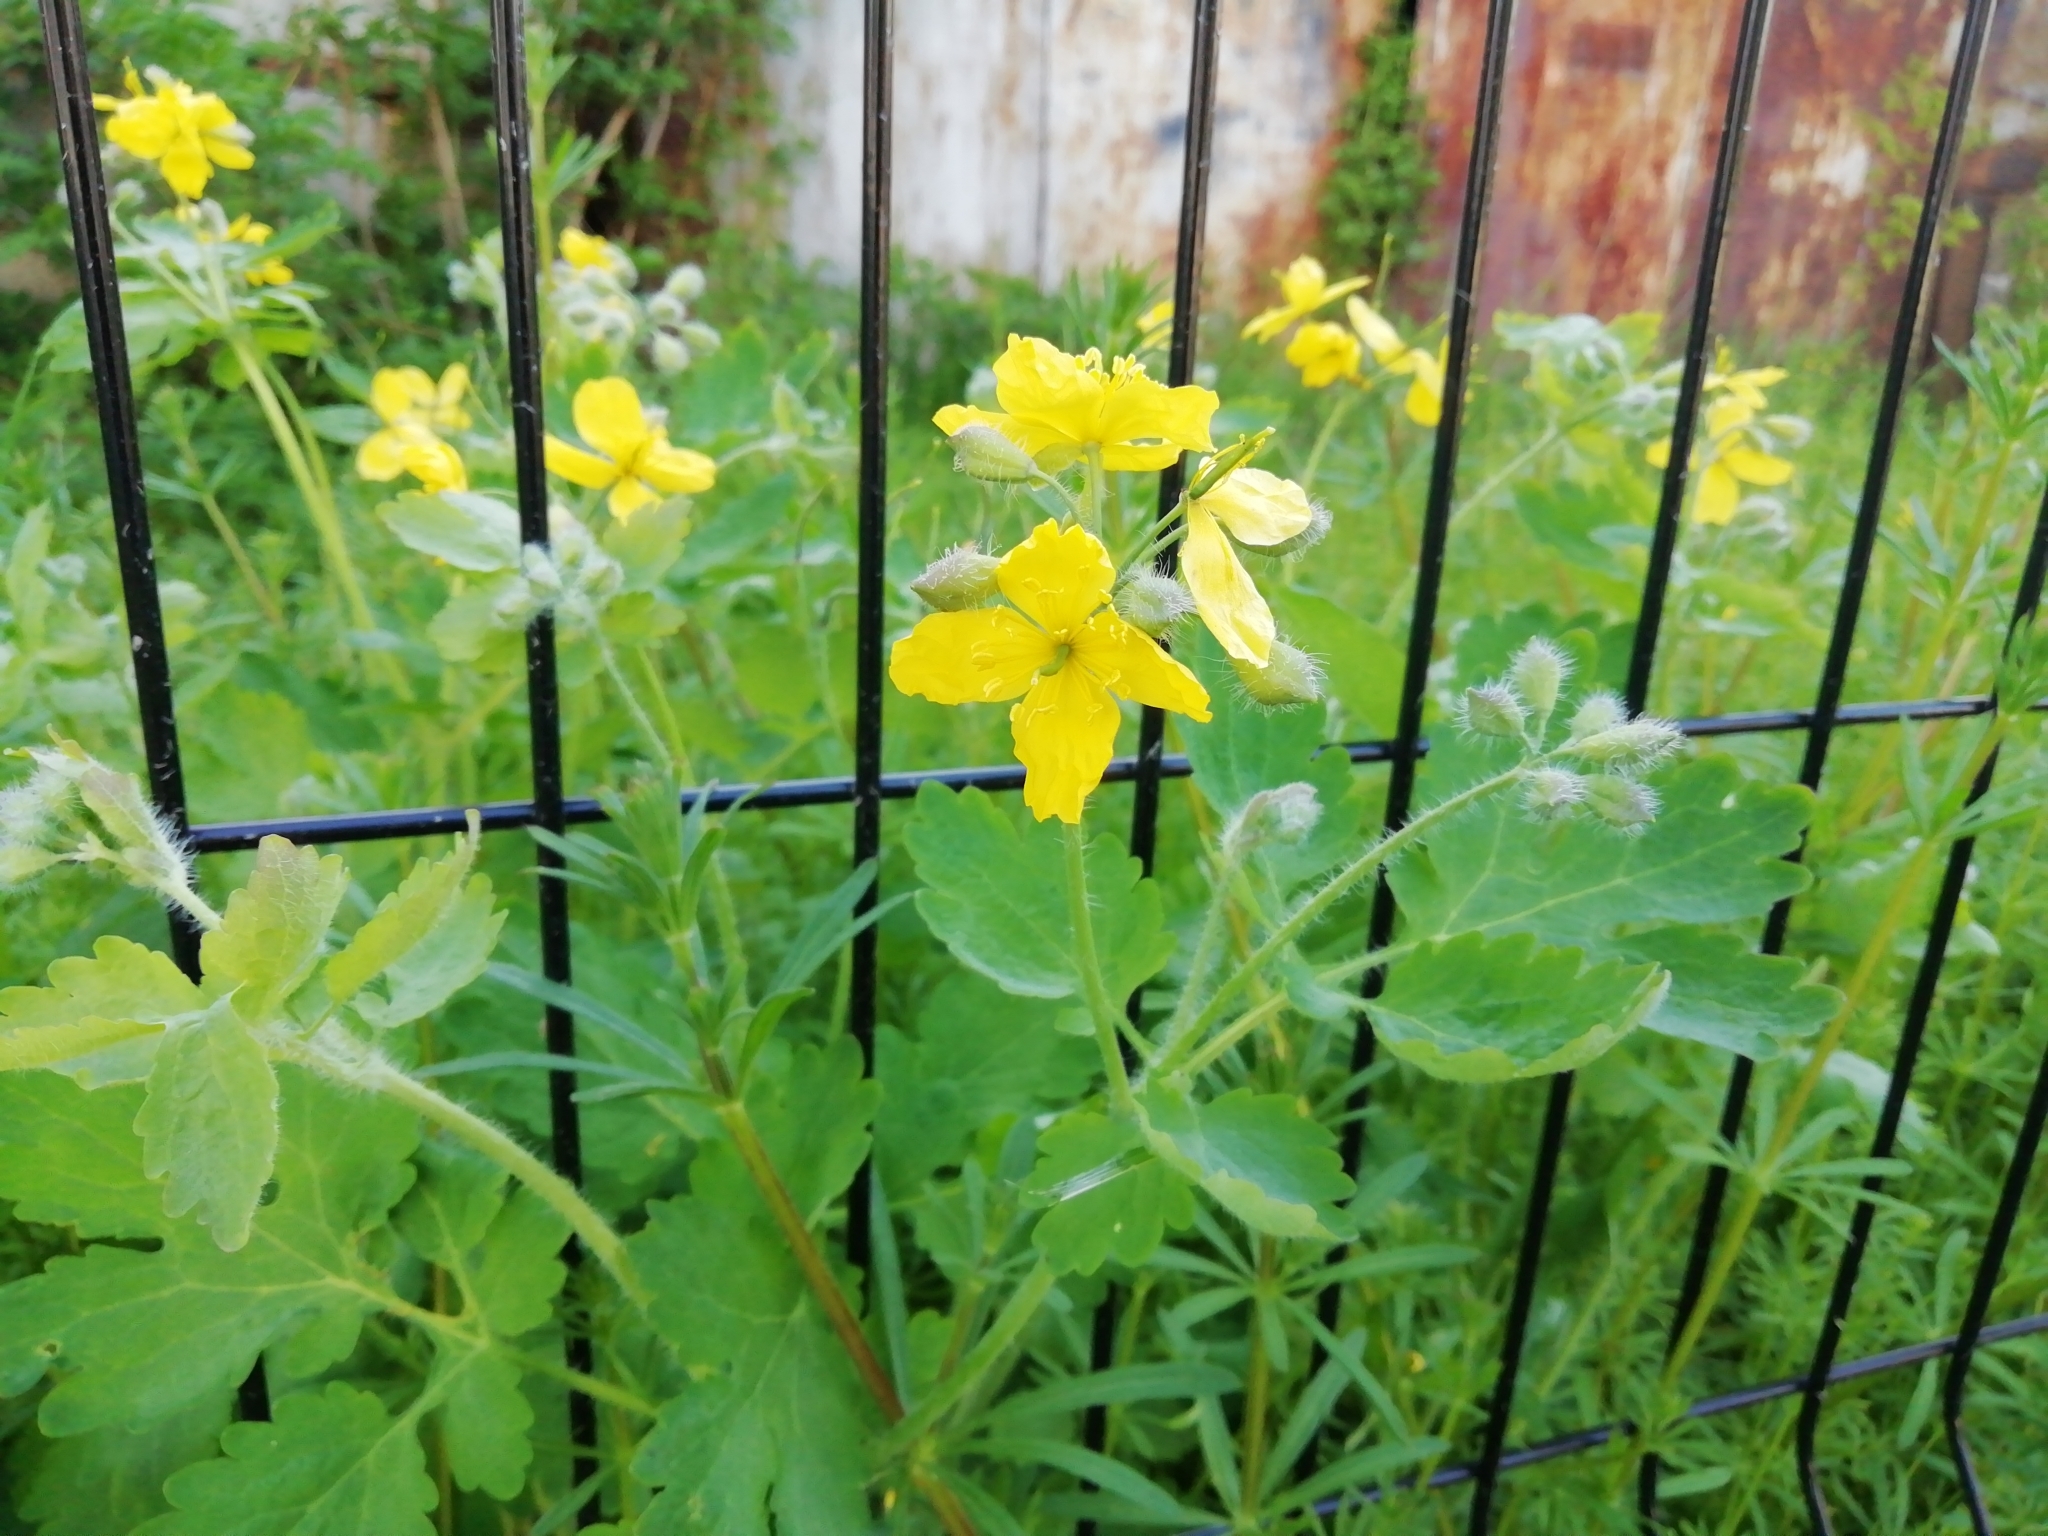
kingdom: Plantae
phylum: Tracheophyta
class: Magnoliopsida
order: Ranunculales
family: Papaveraceae
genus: Chelidonium
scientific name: Chelidonium majus
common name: Greater celandine
